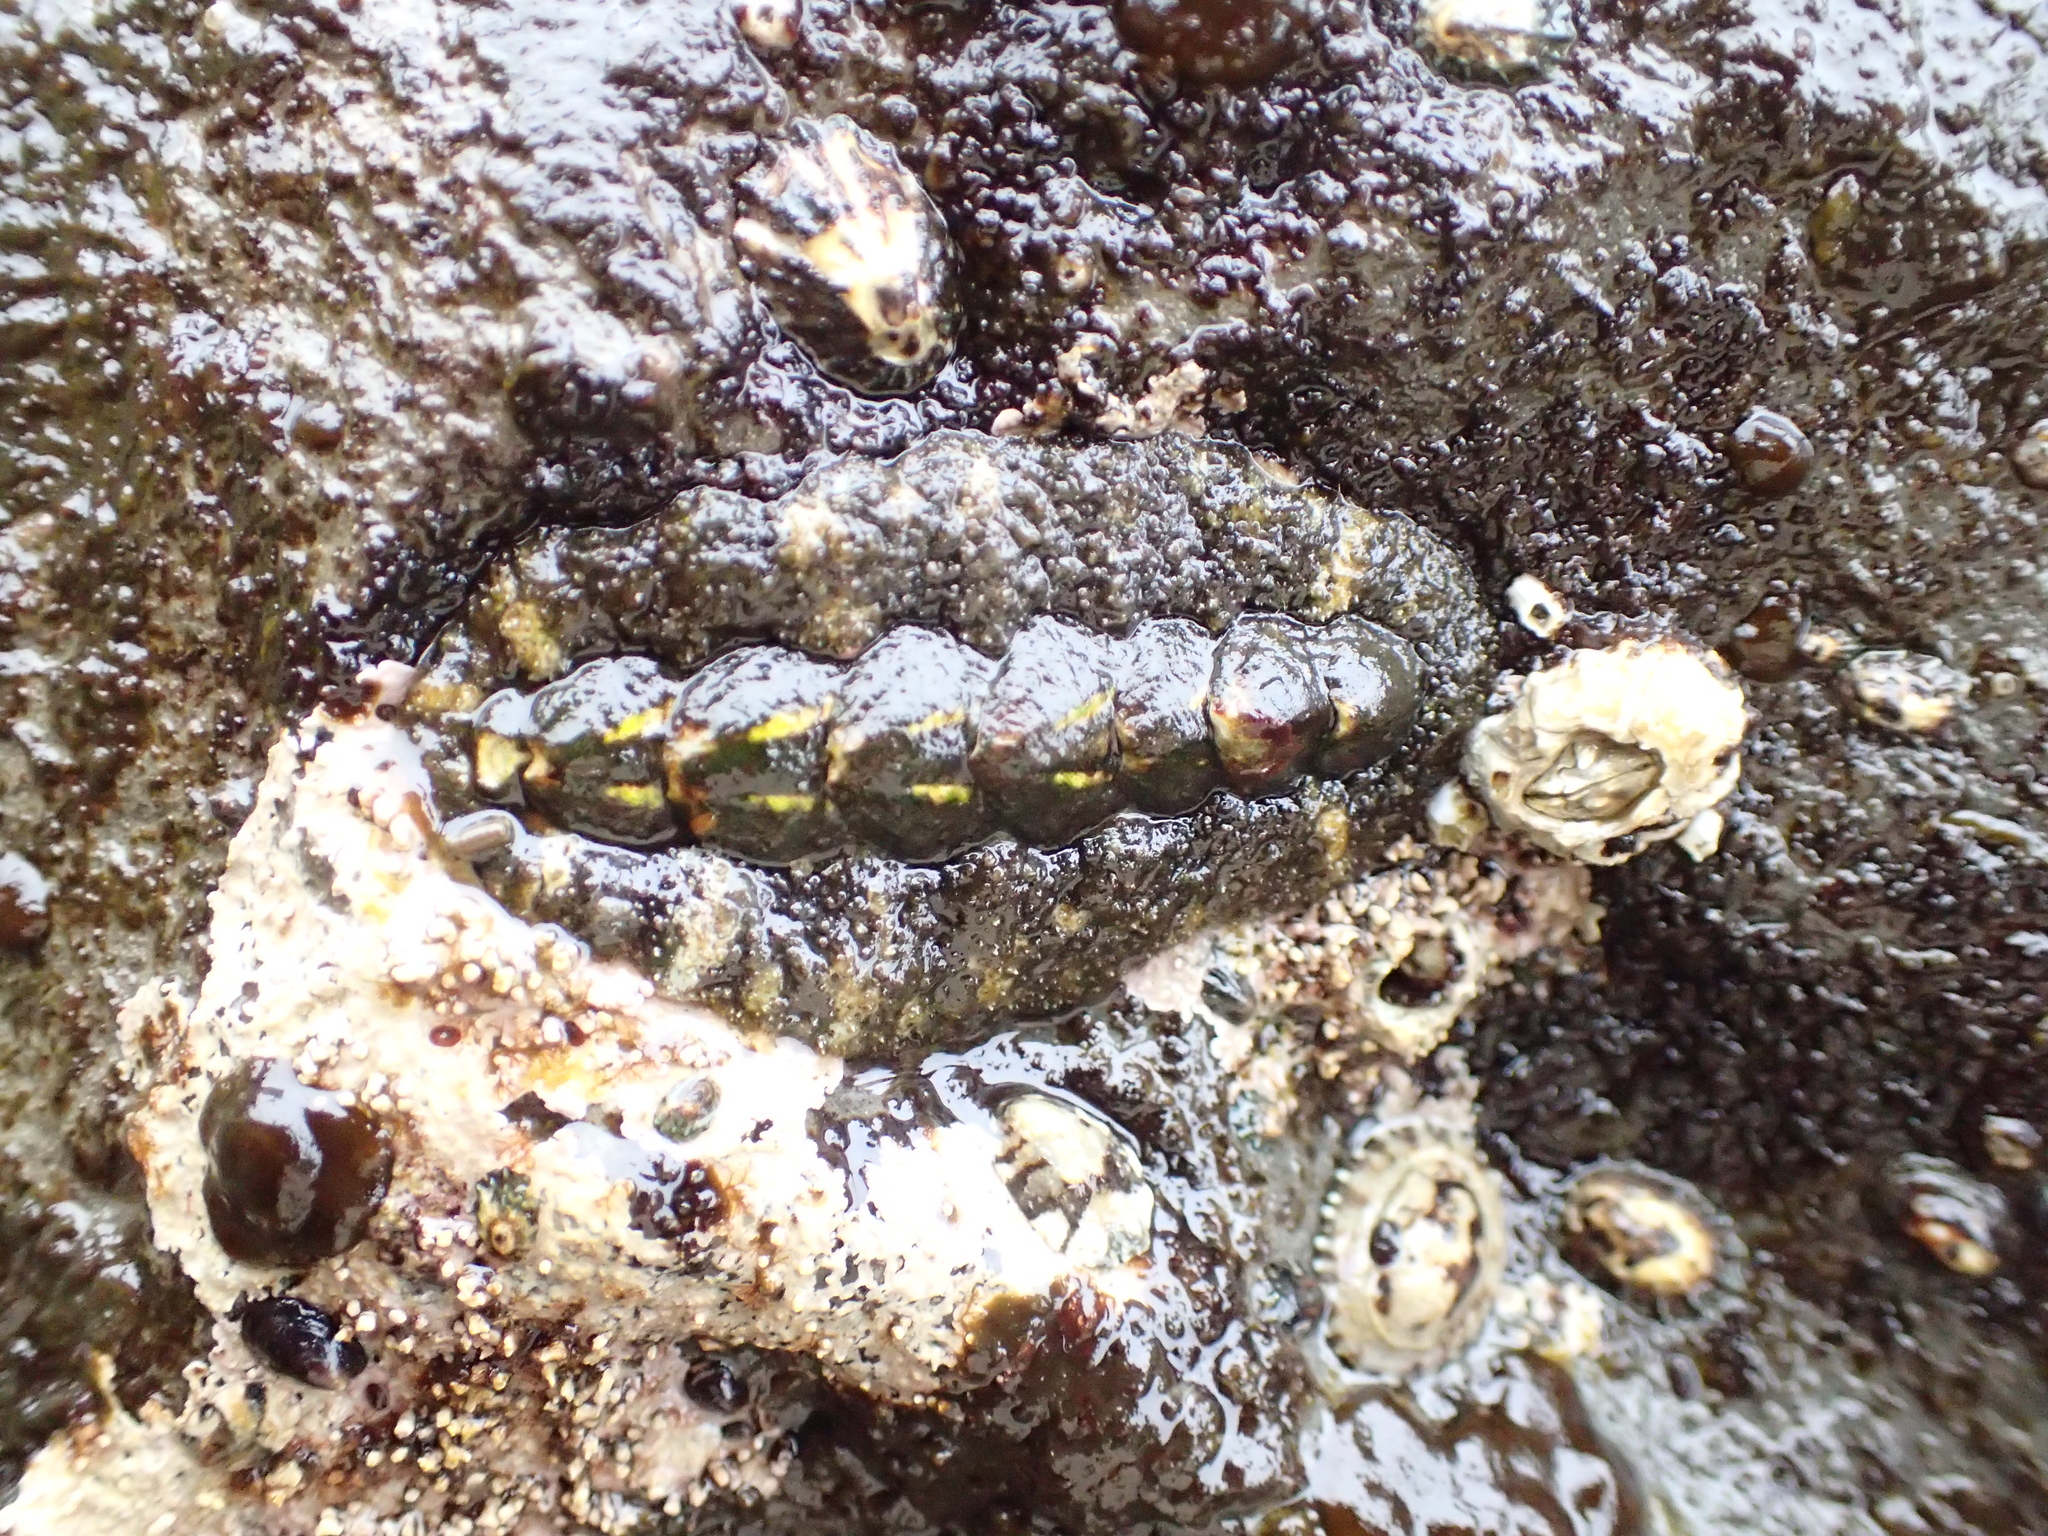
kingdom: Animalia
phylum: Mollusca
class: Polyplacophora
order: Chitonida
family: Tonicellidae
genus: Nuttallina
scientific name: Nuttallina californica
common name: California nuttall chiton
